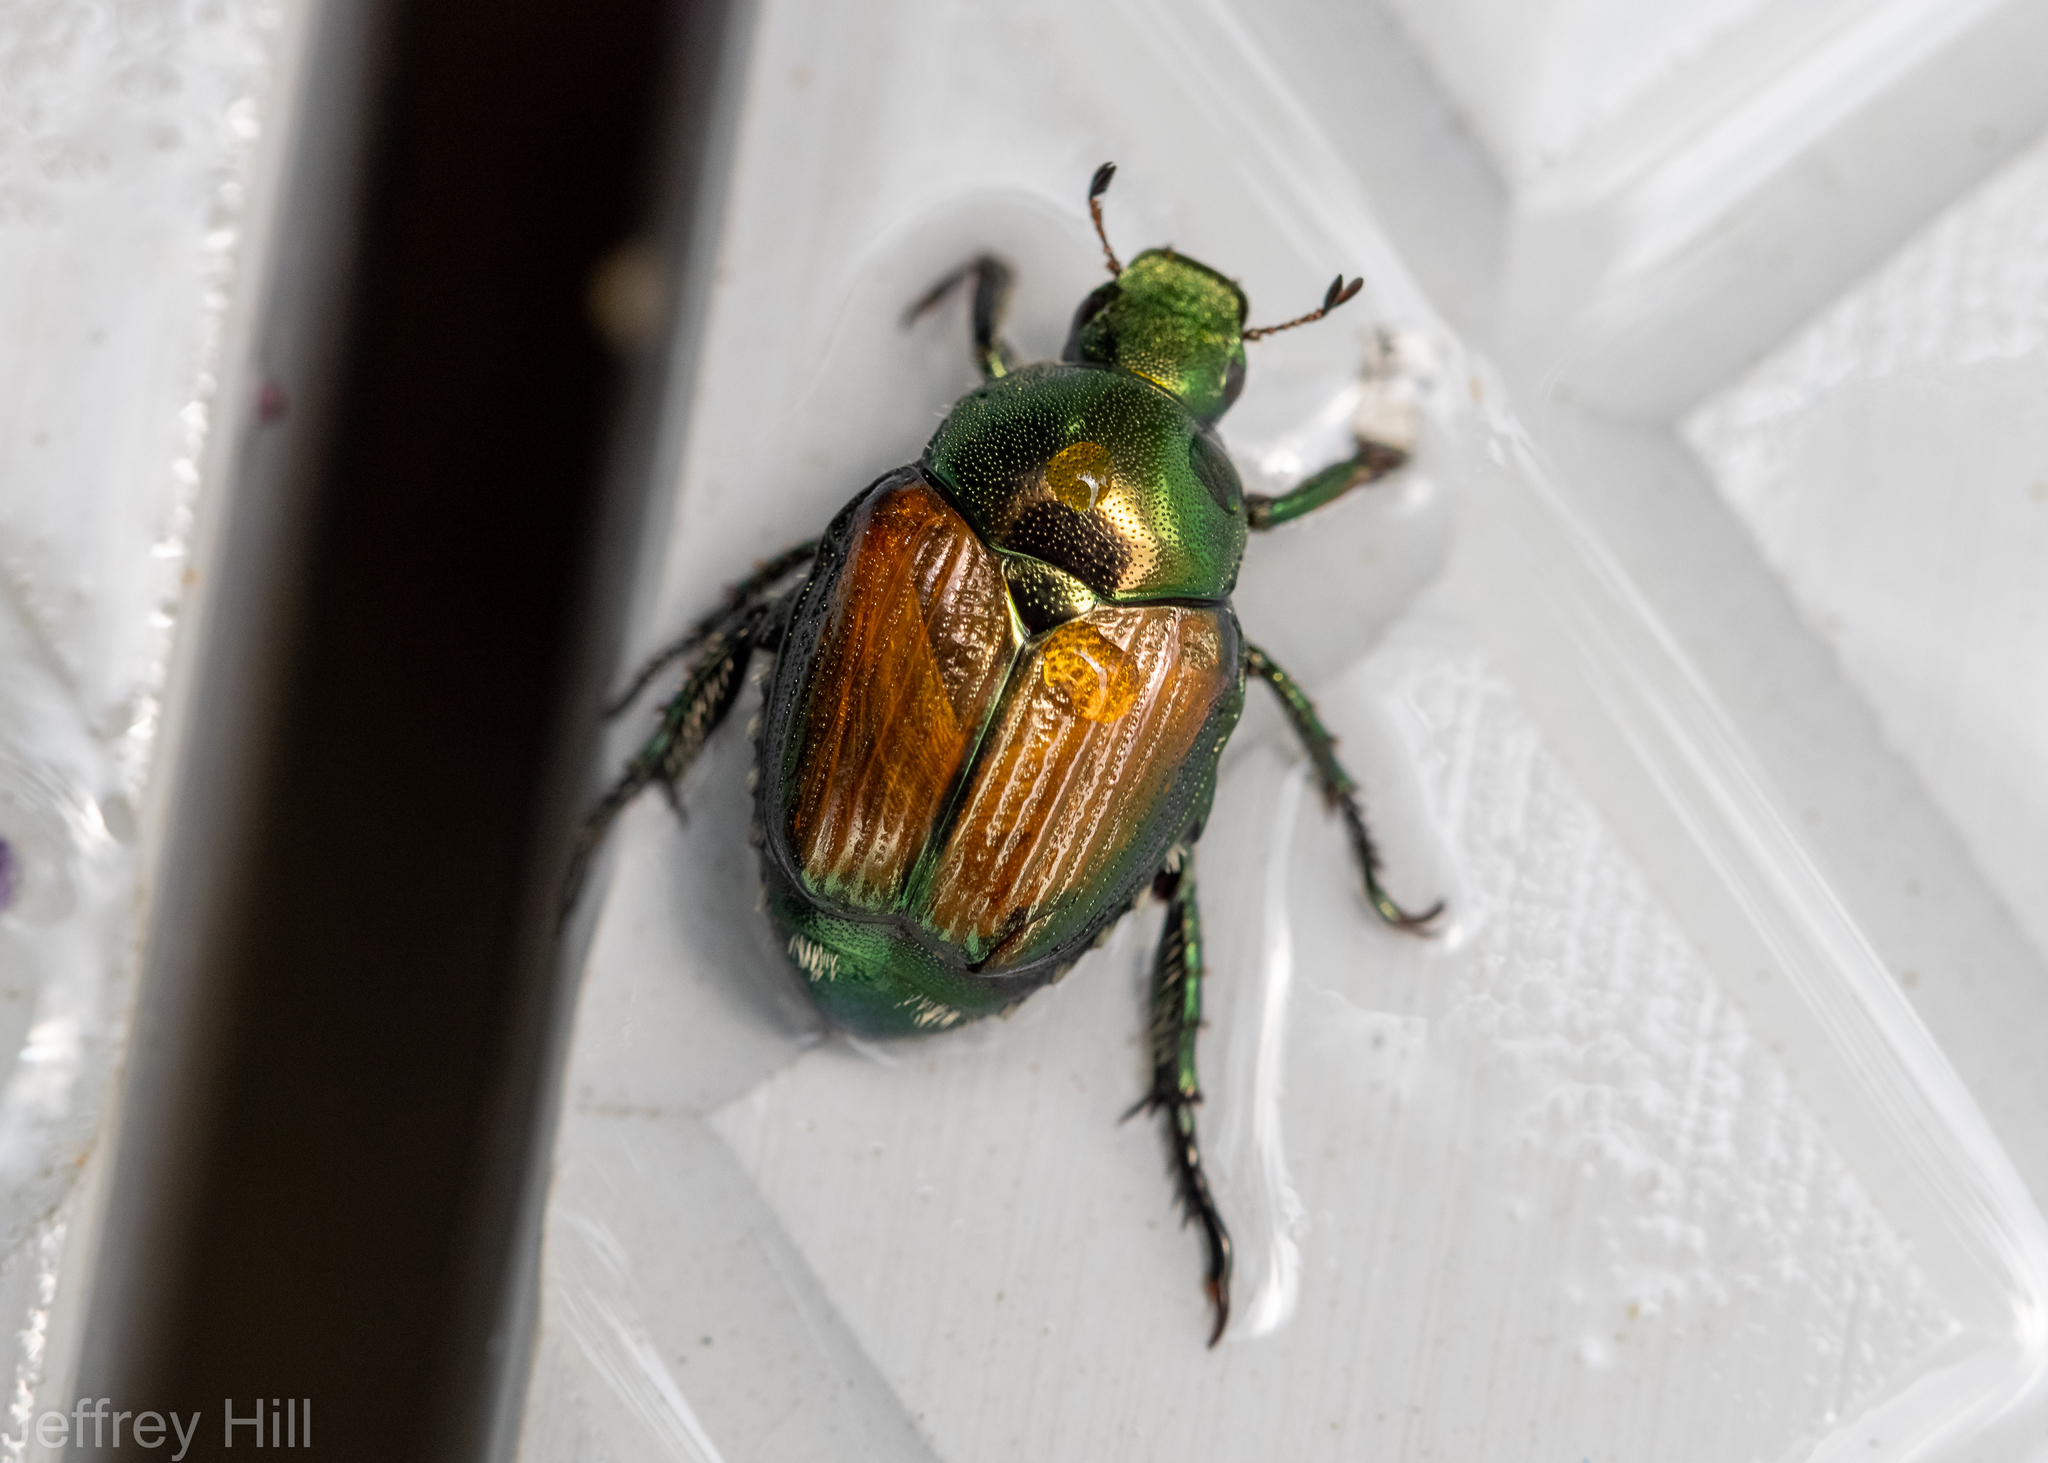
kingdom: Animalia
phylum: Arthropoda
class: Insecta
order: Coleoptera
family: Scarabaeidae
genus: Popillia
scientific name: Popillia japonica
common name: Japanese beetle
